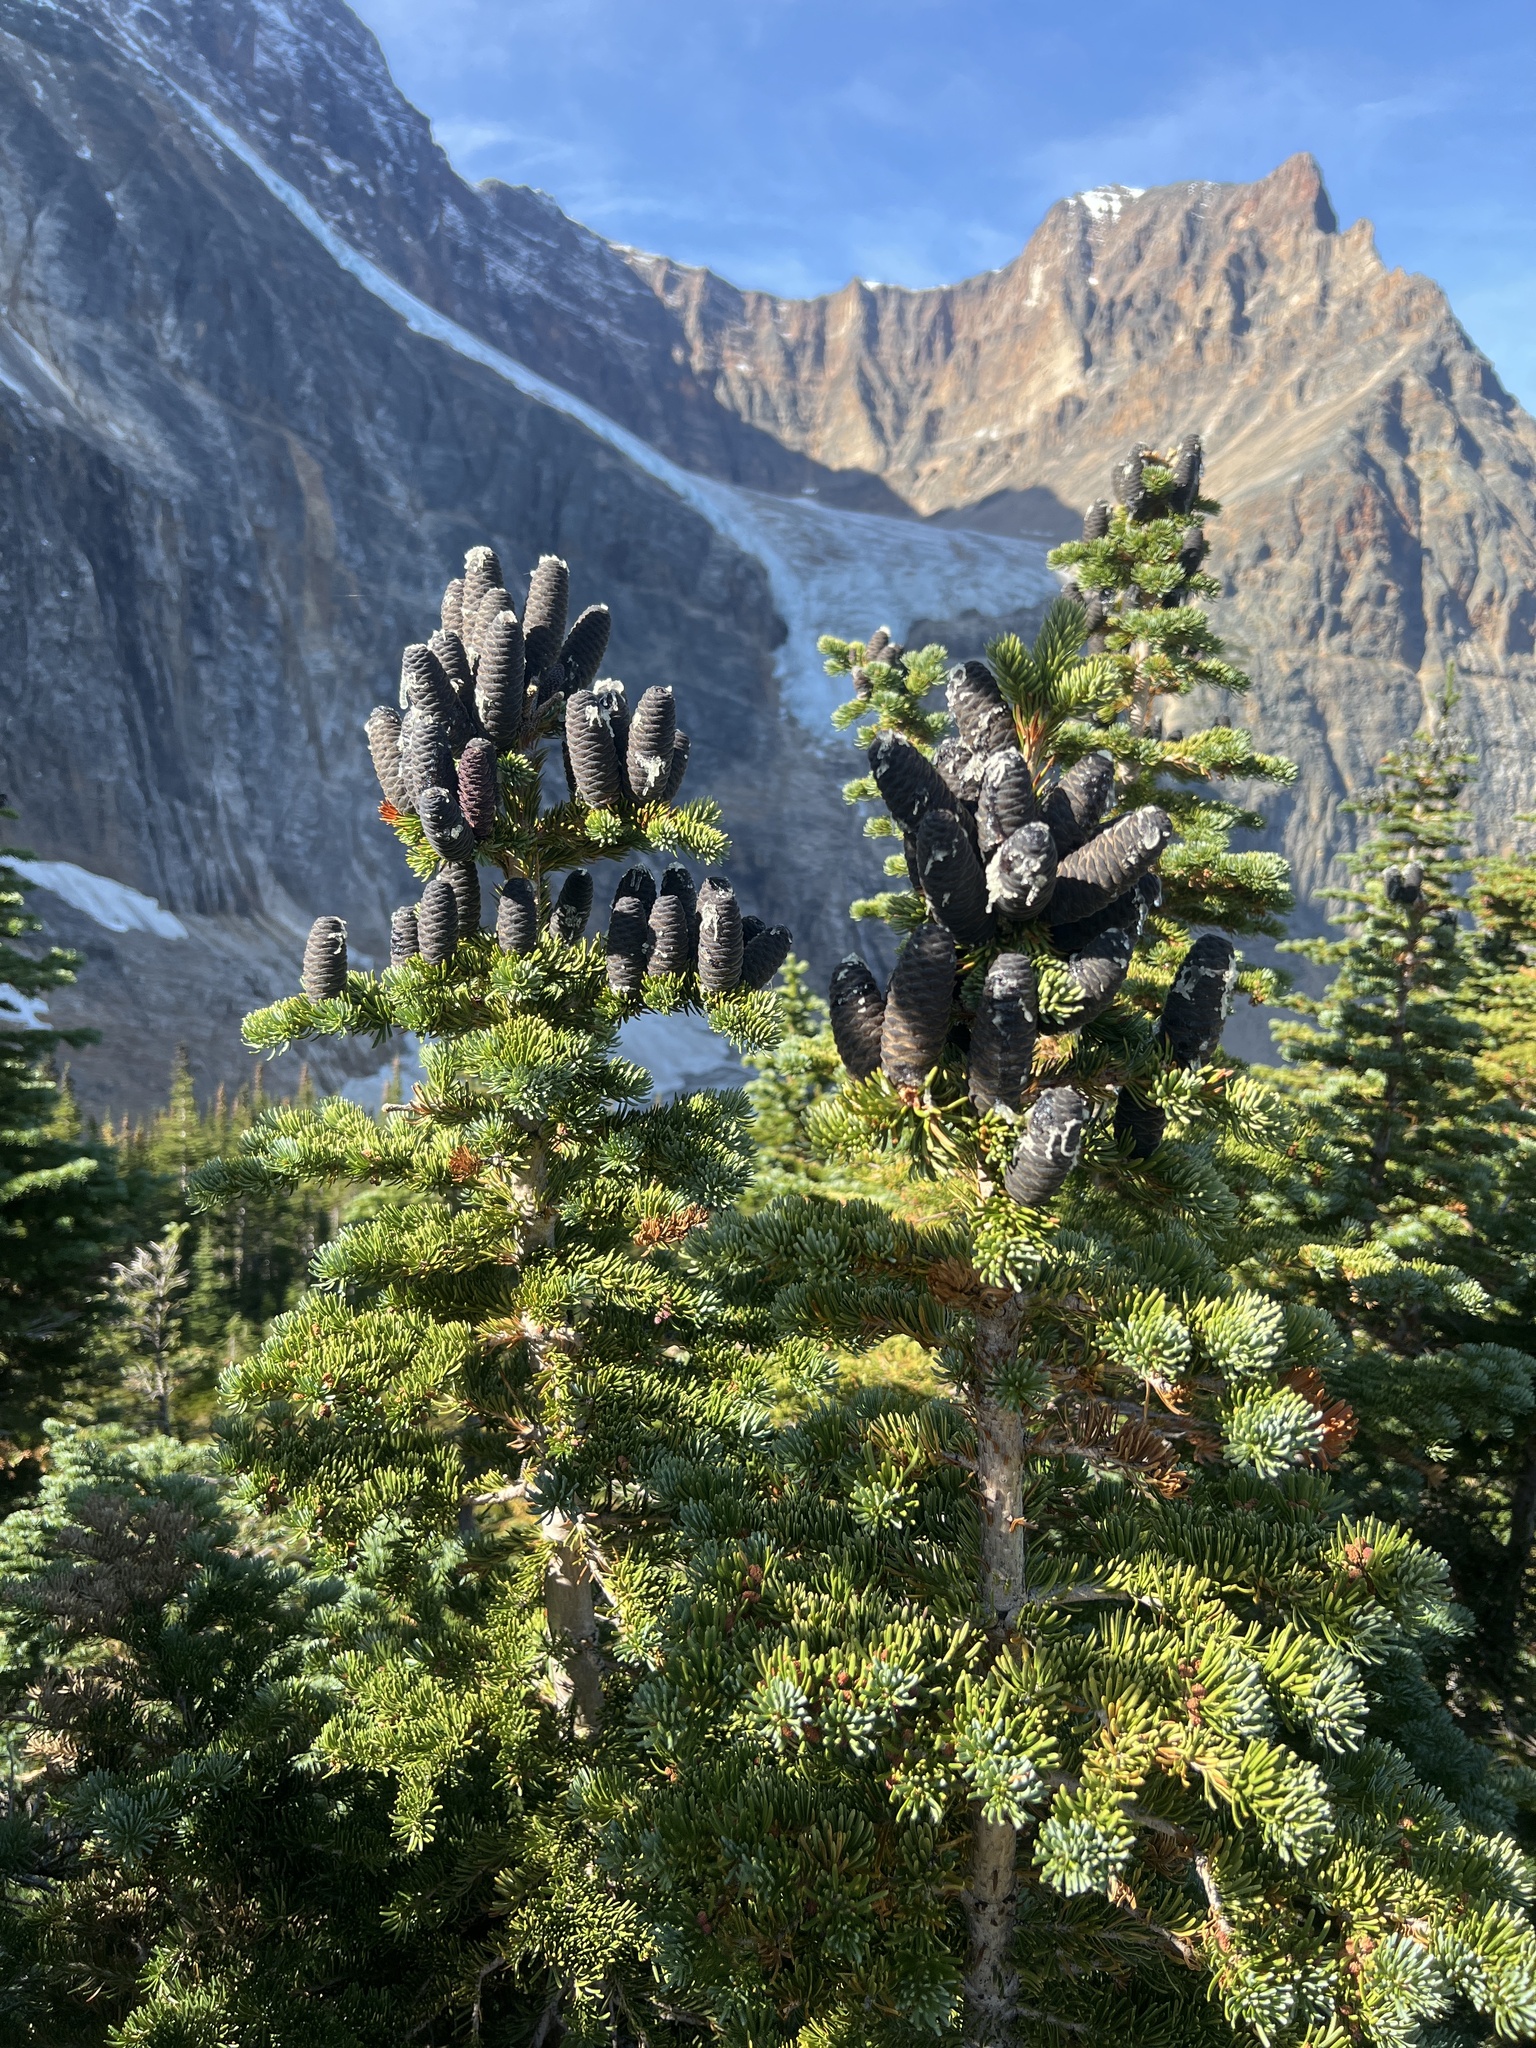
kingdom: Plantae
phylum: Tracheophyta
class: Pinopsida
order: Pinales
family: Pinaceae
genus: Abies
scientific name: Abies lasiocarpa
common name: Subalpine fir
